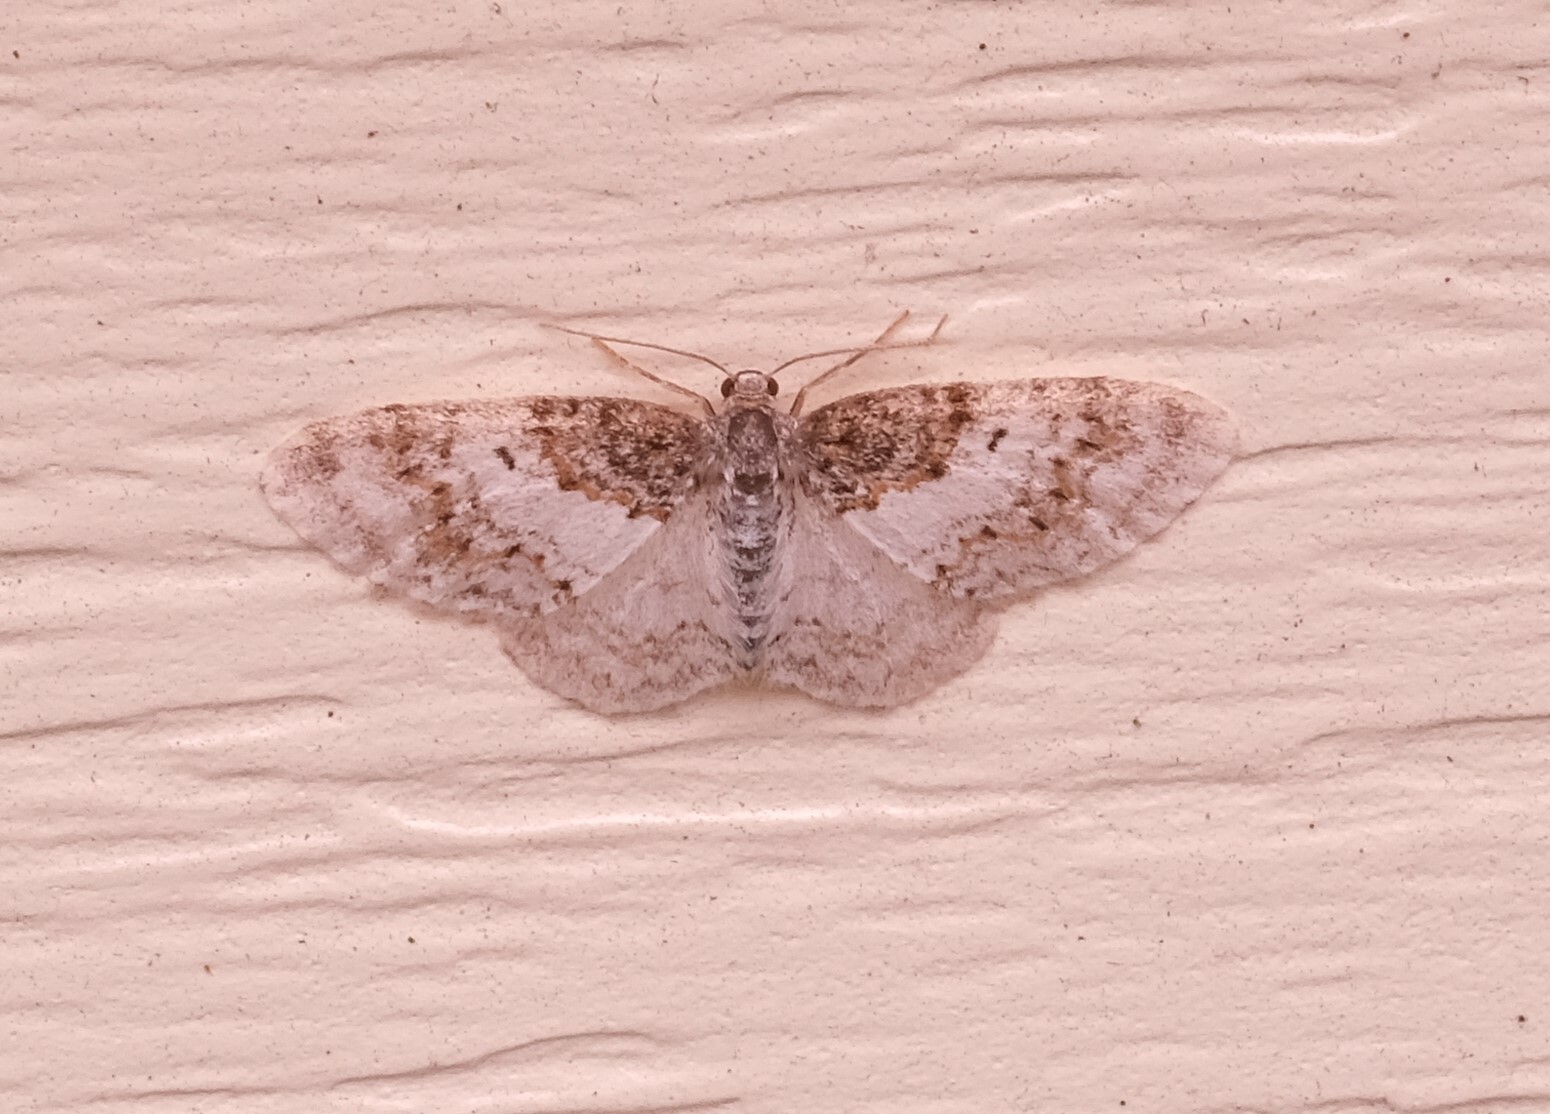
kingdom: Animalia
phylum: Arthropoda
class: Insecta
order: Lepidoptera
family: Geometridae
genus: Hydrelia
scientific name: Hydrelia condensata
